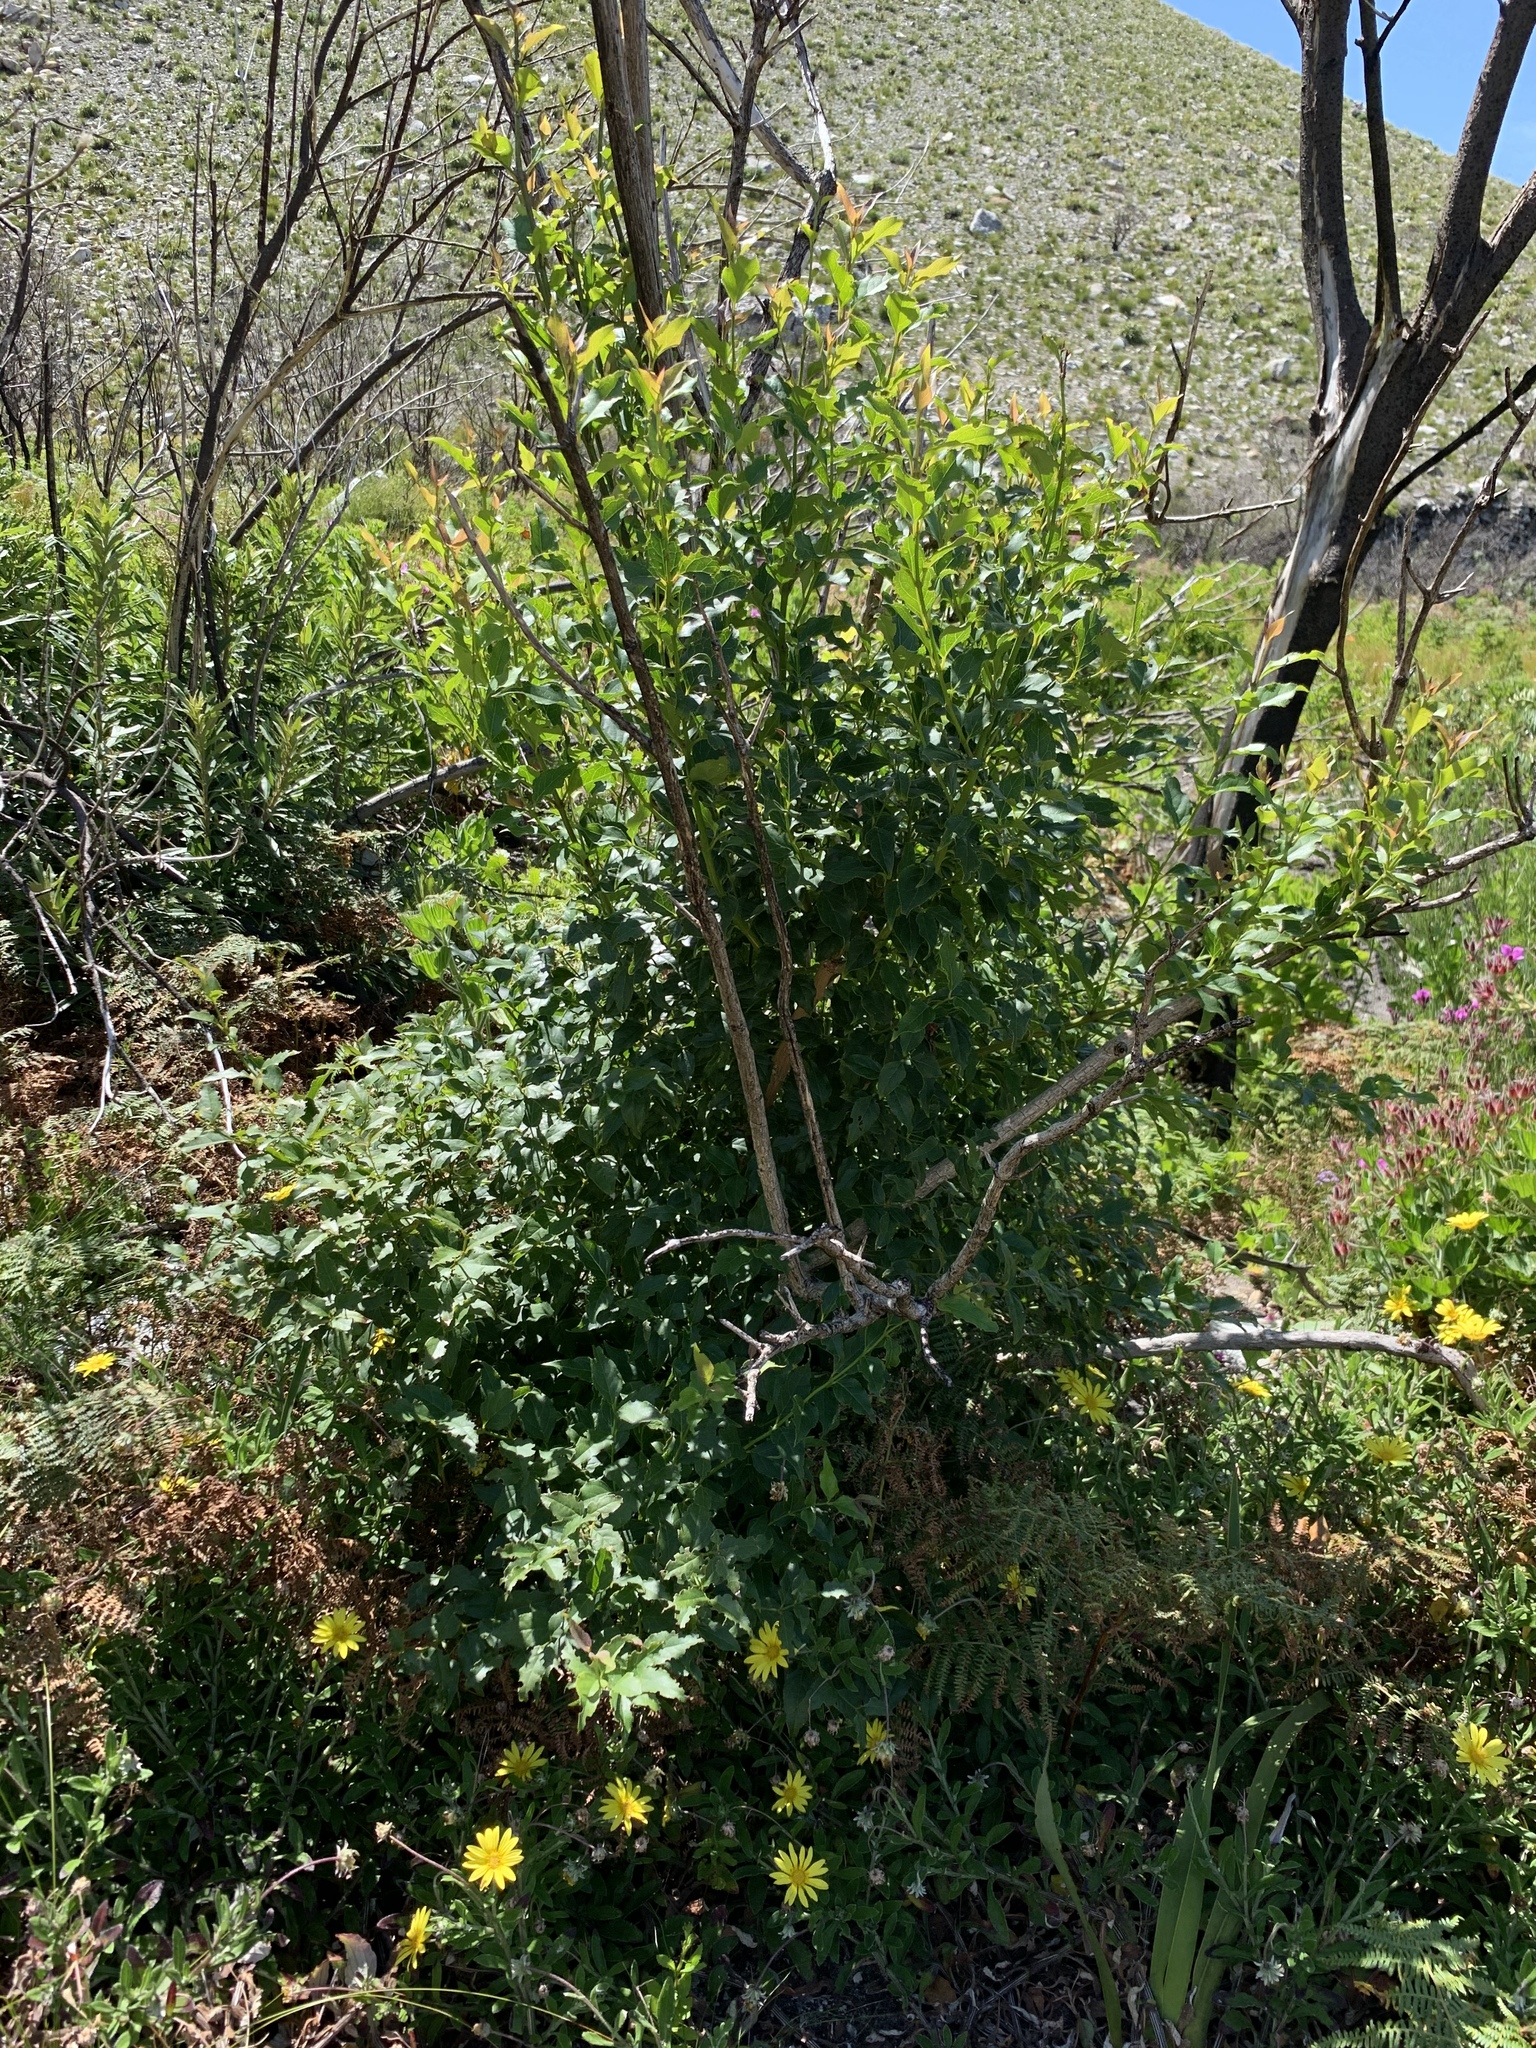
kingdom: Plantae
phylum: Tracheophyta
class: Magnoliopsida
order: Lamiales
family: Stilbaceae
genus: Halleria
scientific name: Halleria lucida
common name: Tree fuschia
